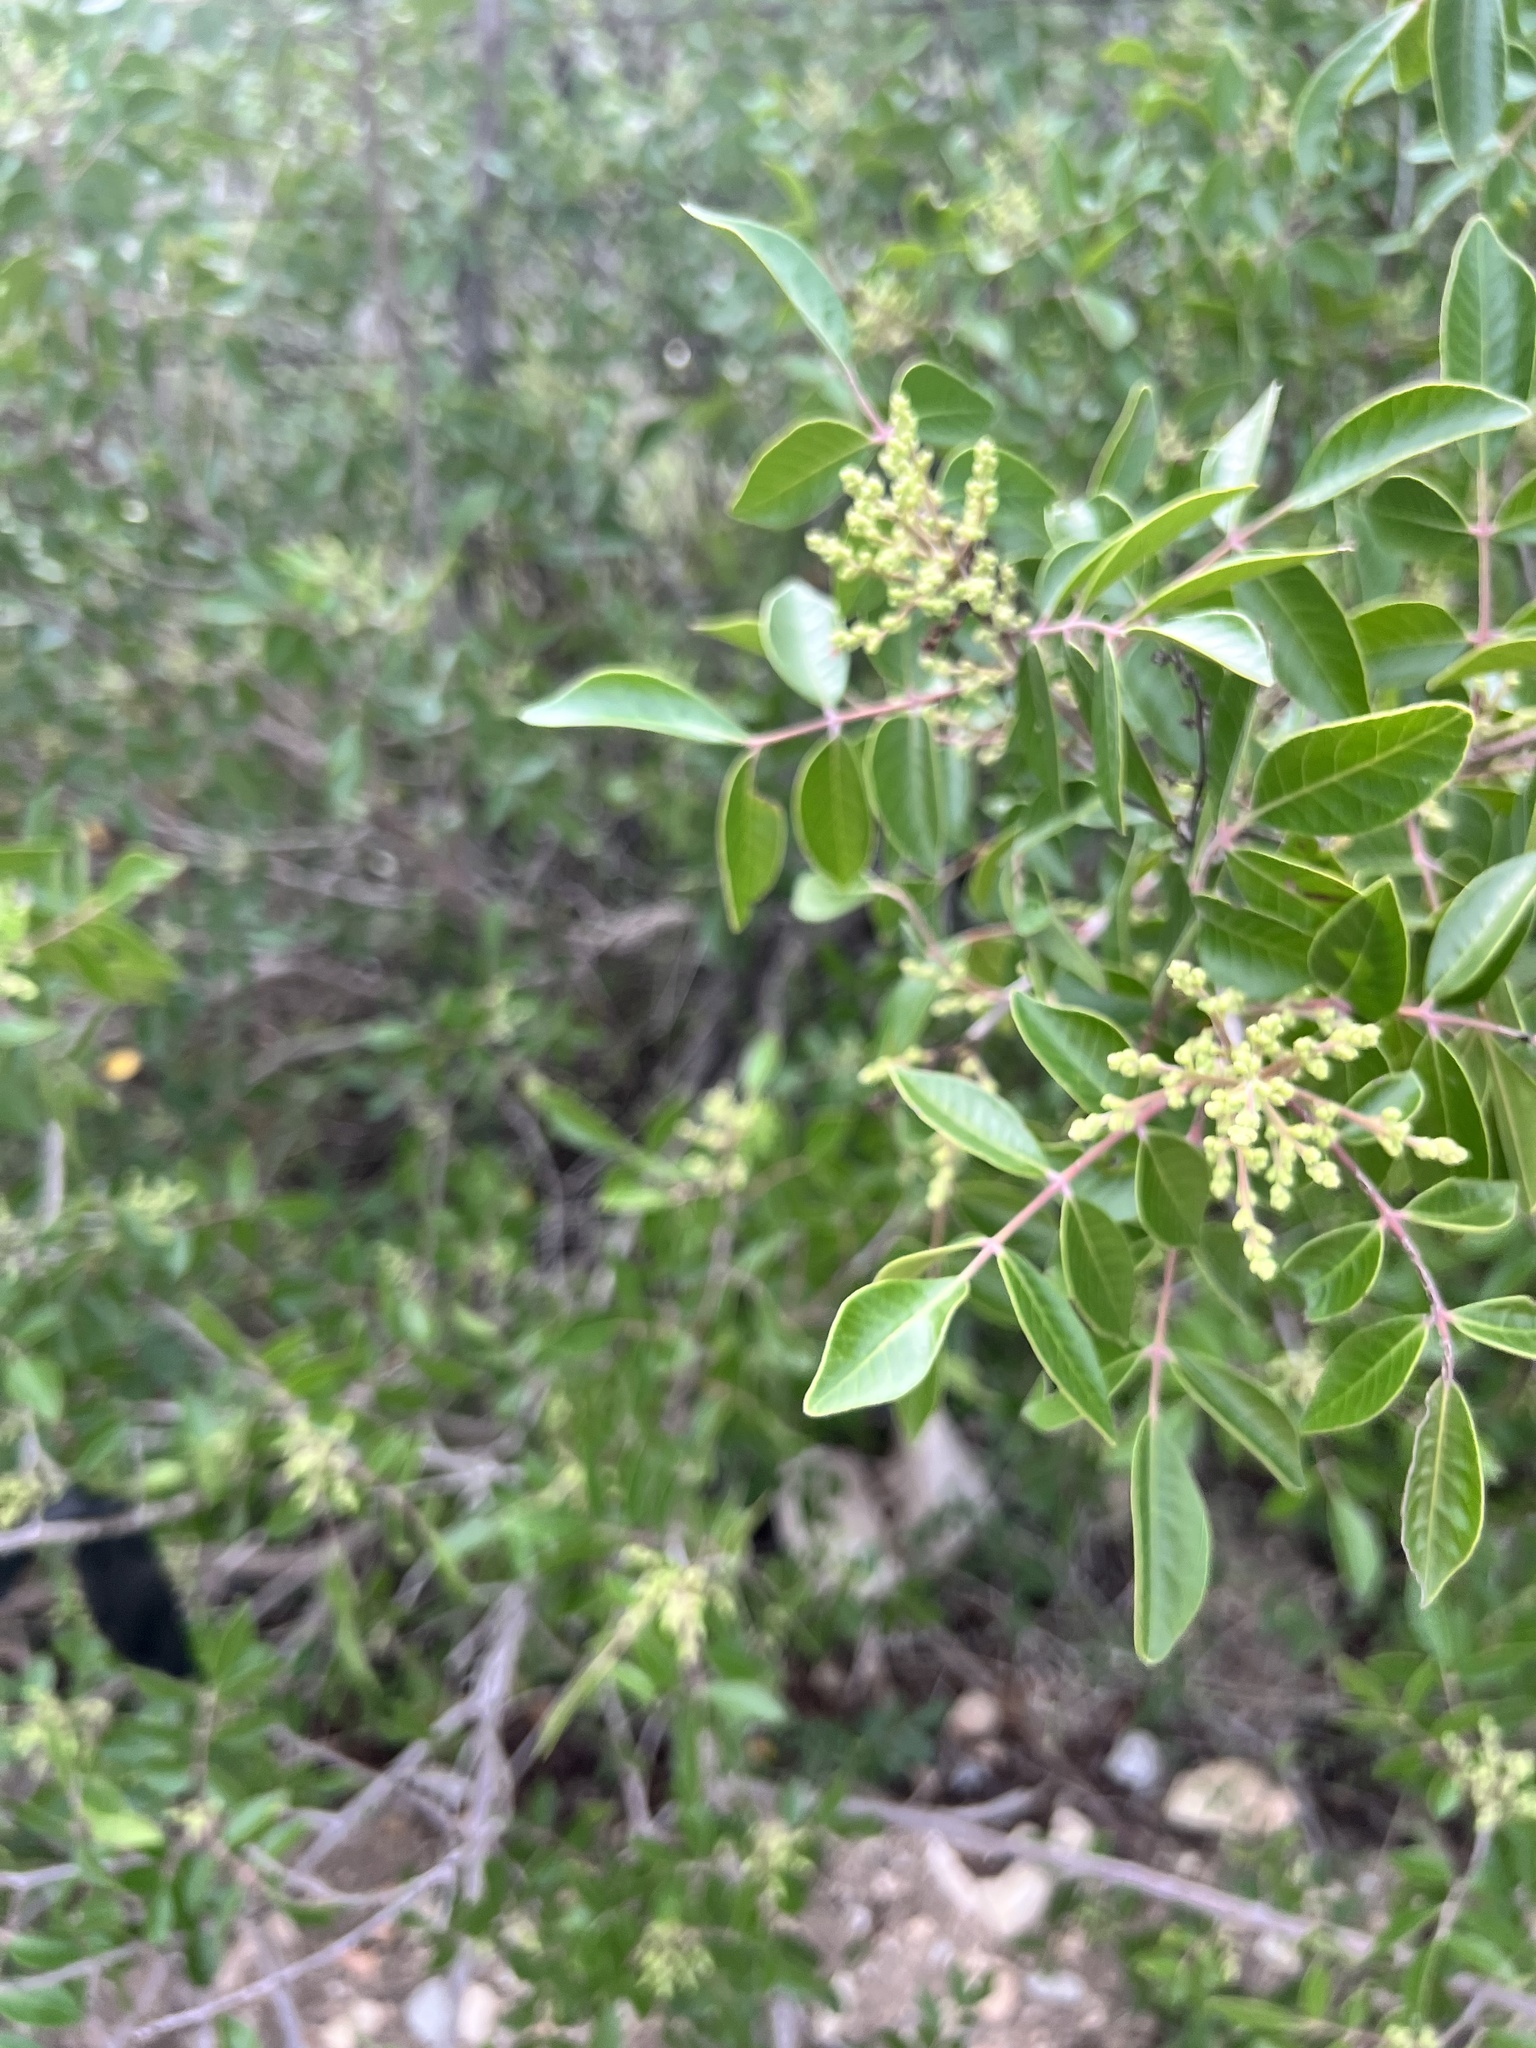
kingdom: Plantae
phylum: Tracheophyta
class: Magnoliopsida
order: Sapindales
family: Anacardiaceae
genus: Rhus
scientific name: Rhus virens
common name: Evergreen sumac
